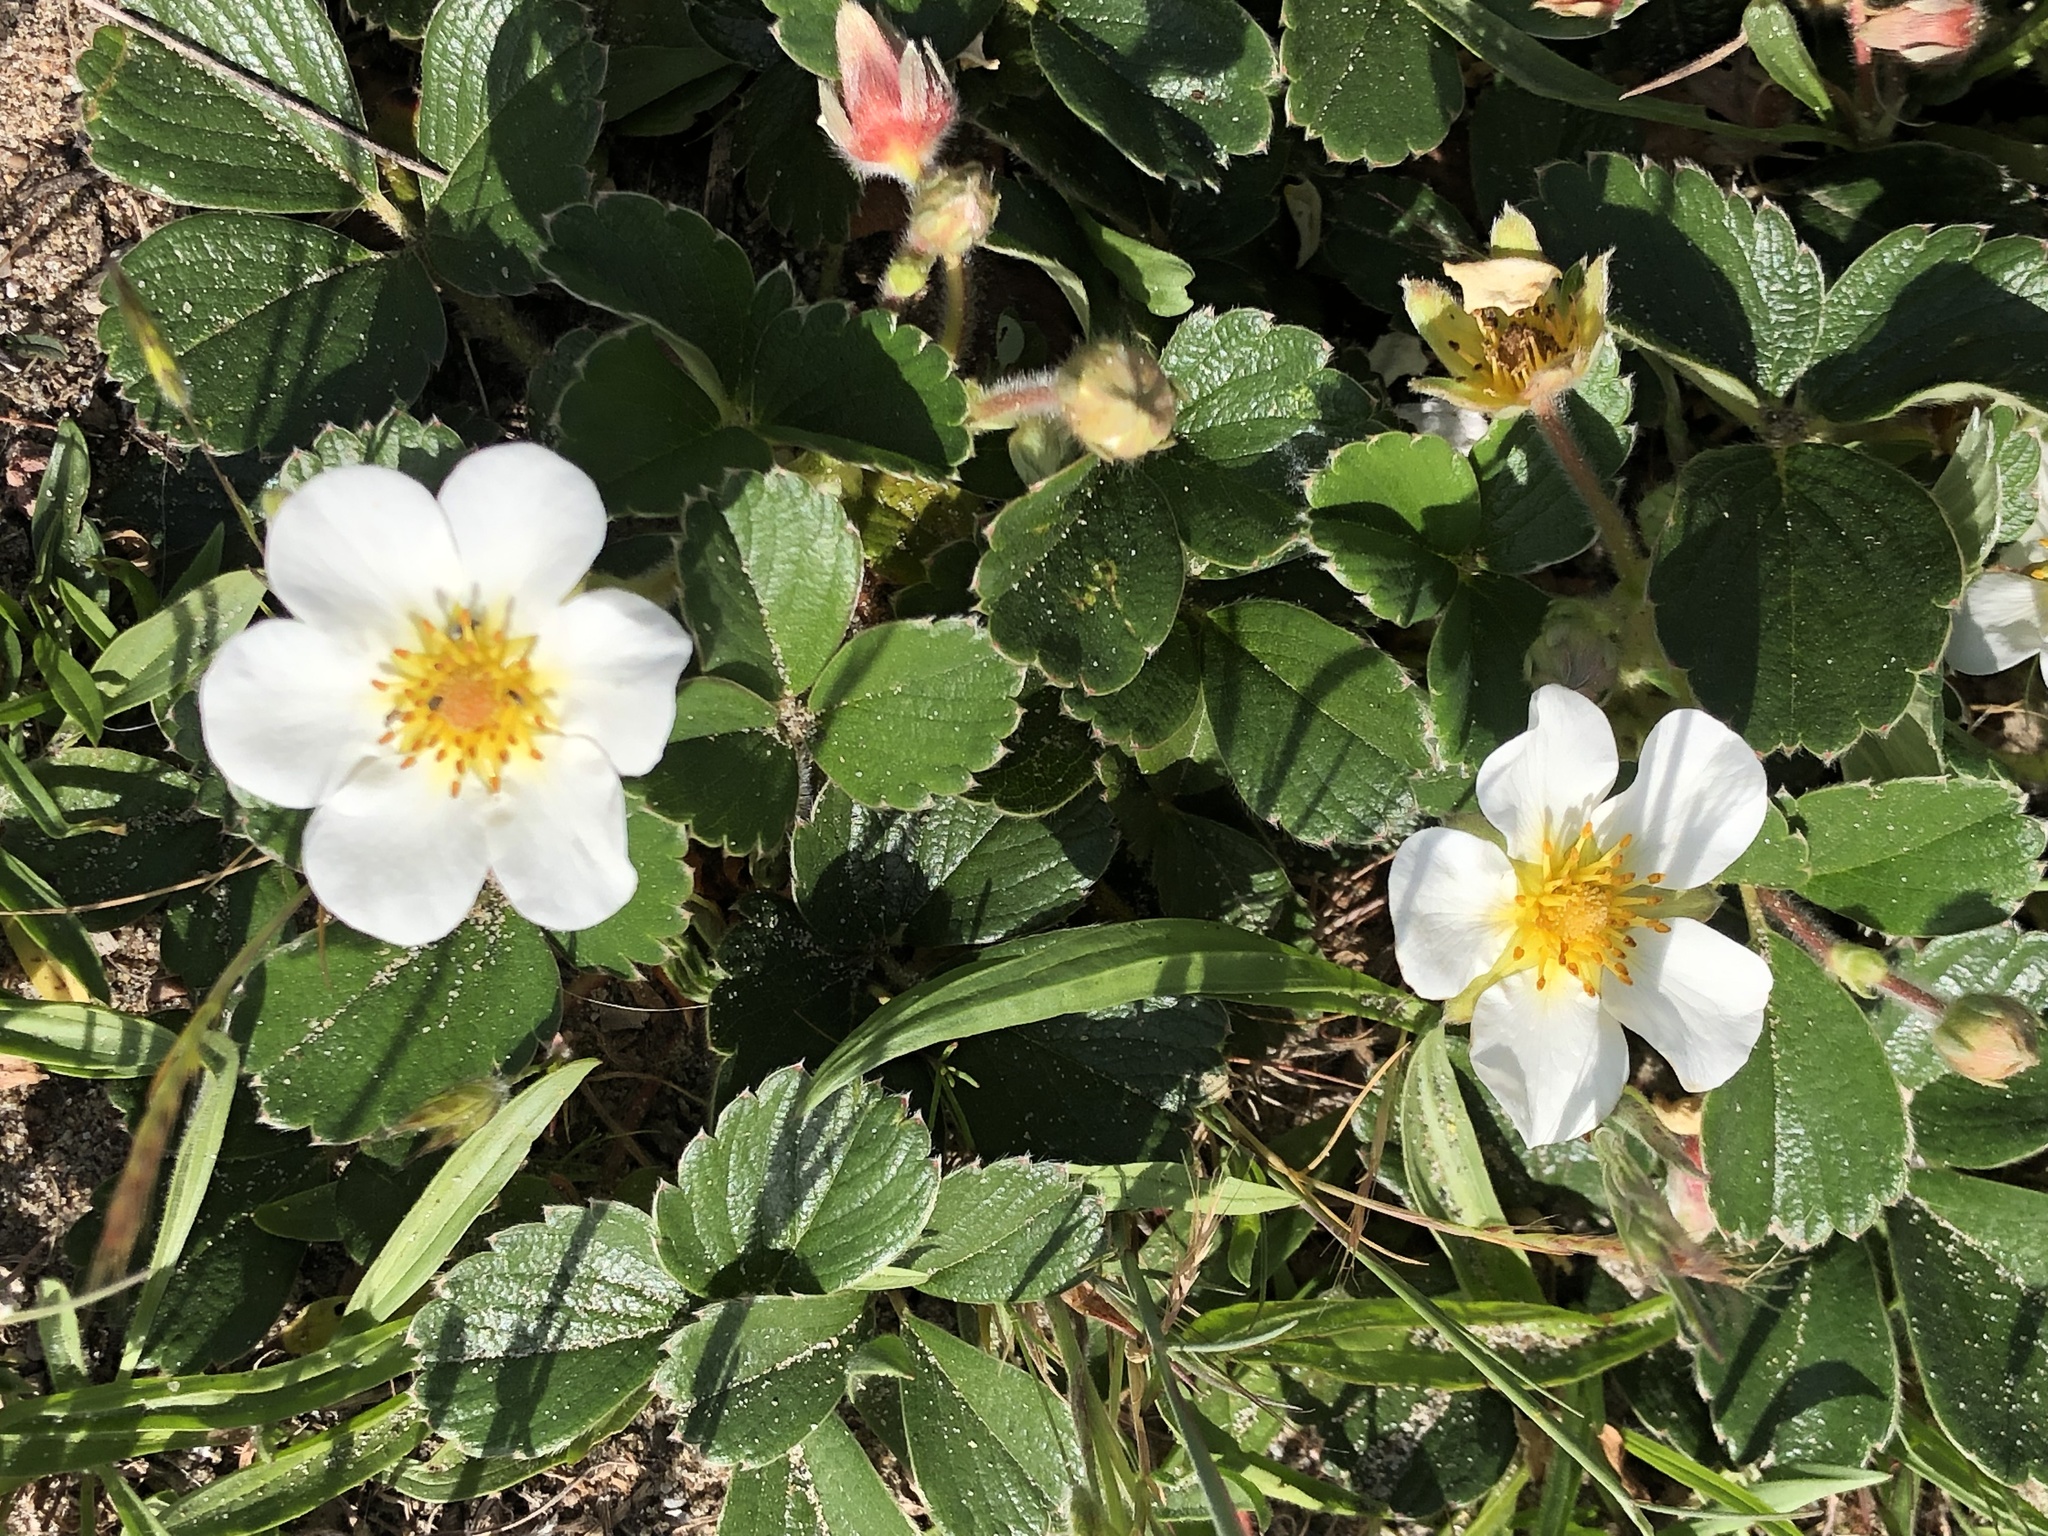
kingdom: Plantae
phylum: Tracheophyta
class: Magnoliopsida
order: Rosales
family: Rosaceae
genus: Fragaria
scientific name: Fragaria chiloensis
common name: Beach strawberry
